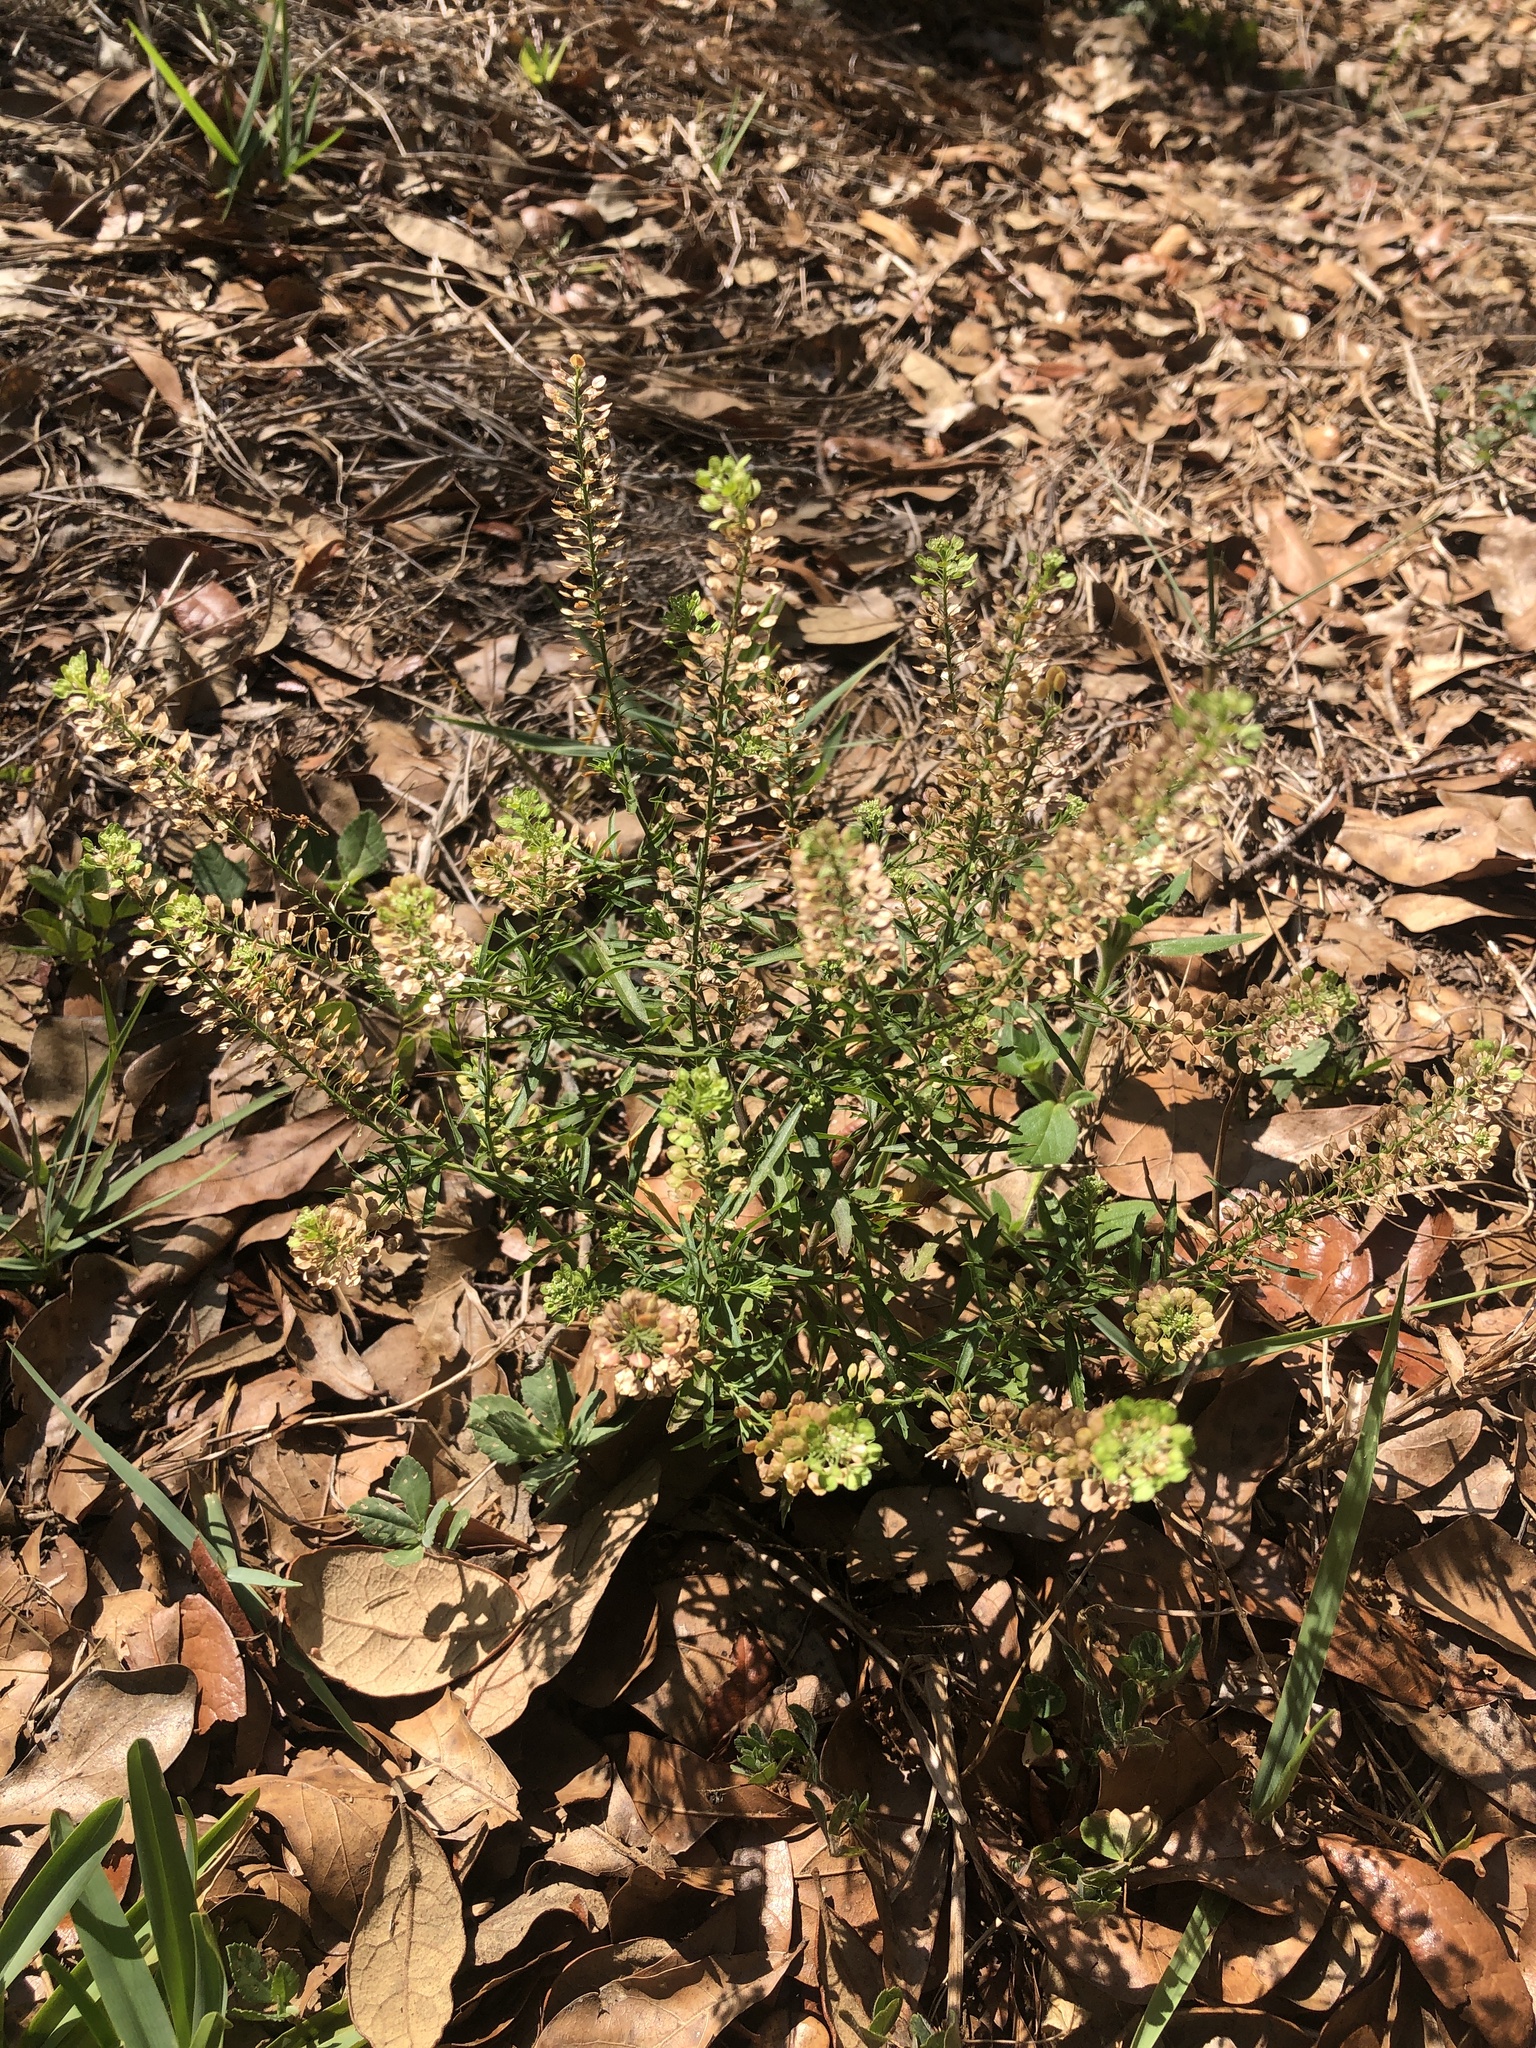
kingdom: Plantae
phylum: Tracheophyta
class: Magnoliopsida
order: Brassicales
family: Brassicaceae
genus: Lepidium
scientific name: Lepidium virginicum
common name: Least pepperwort
